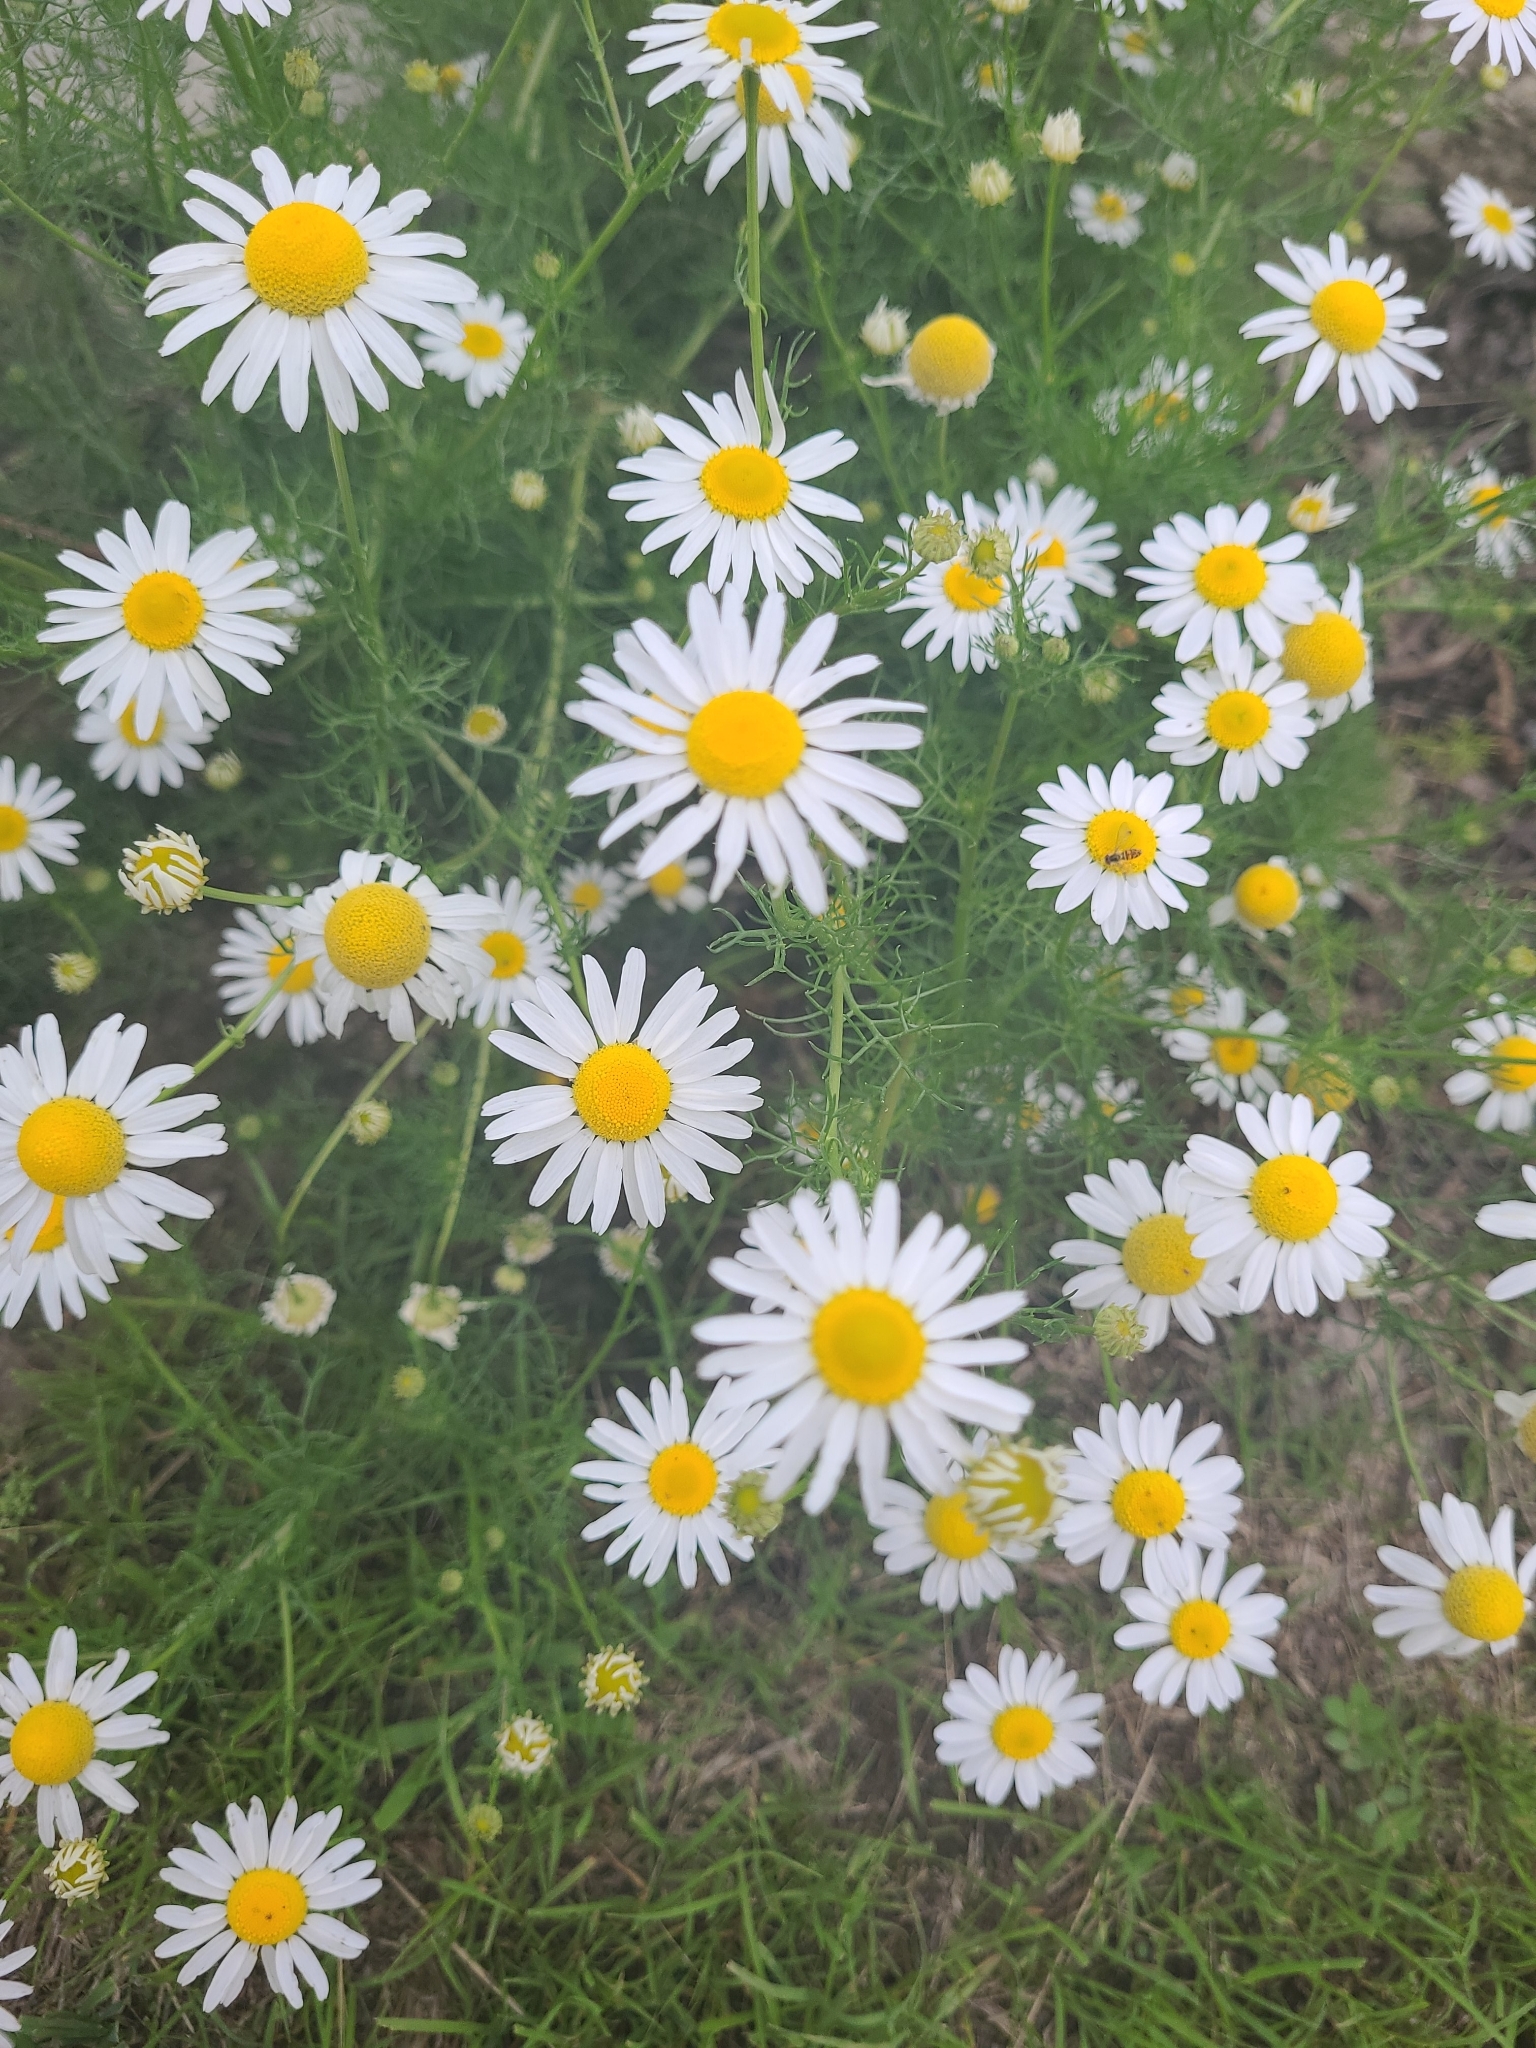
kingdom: Plantae
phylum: Tracheophyta
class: Magnoliopsida
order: Asterales
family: Asteraceae
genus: Tripleurospermum
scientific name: Tripleurospermum inodorum
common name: Scentless mayweed
